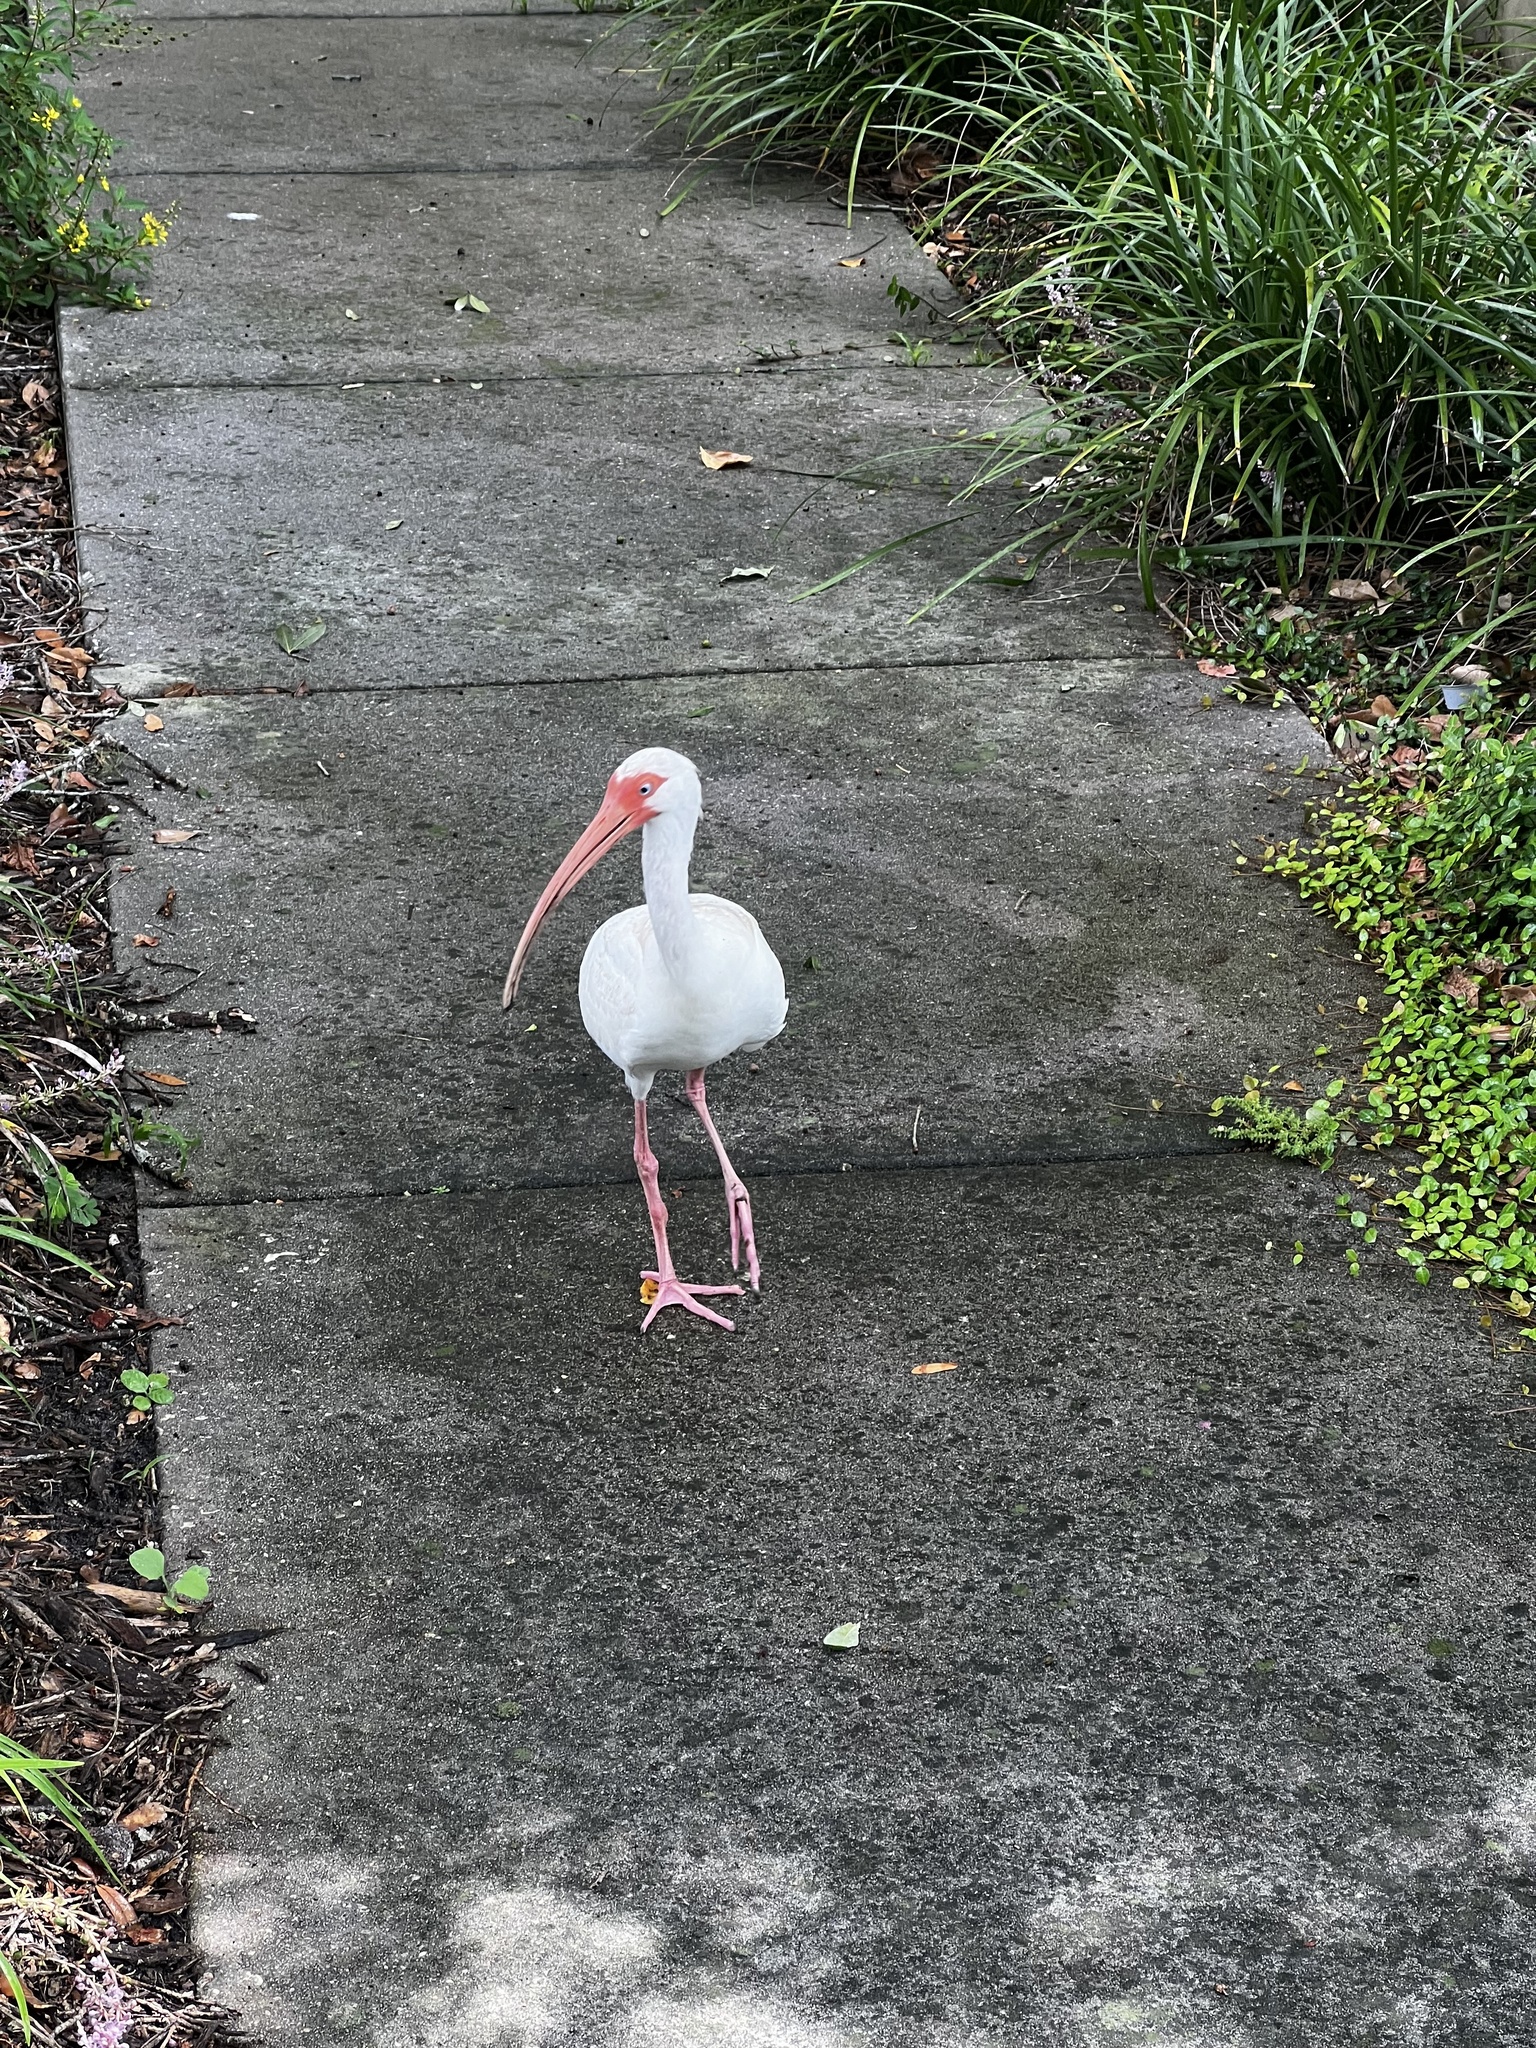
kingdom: Animalia
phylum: Chordata
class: Aves
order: Pelecaniformes
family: Threskiornithidae
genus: Eudocimus
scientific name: Eudocimus albus
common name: White ibis
